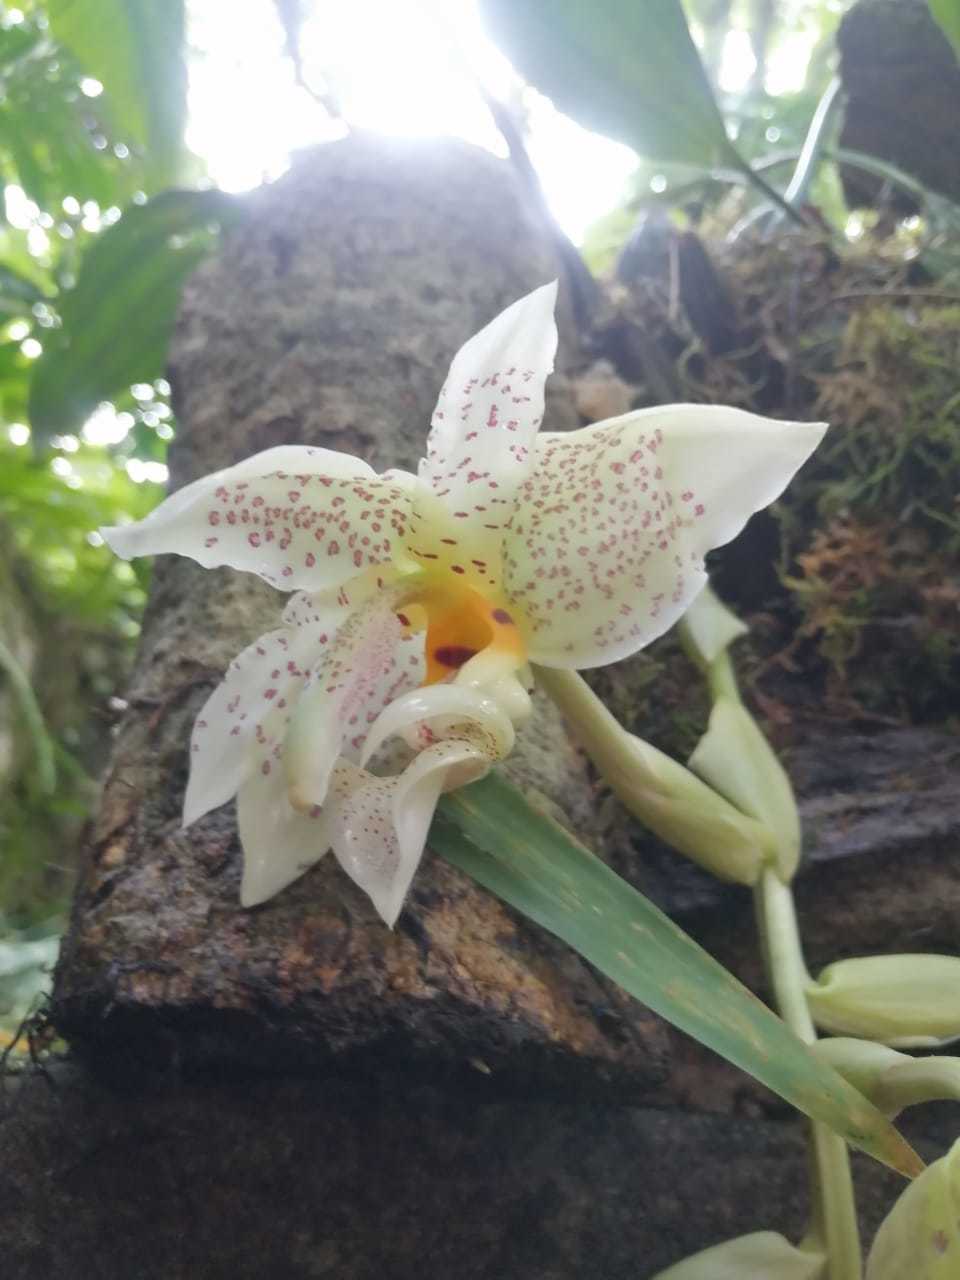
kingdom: Plantae
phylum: Tracheophyta
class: Liliopsida
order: Asparagales
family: Orchidaceae
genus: Stanhopea
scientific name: Stanhopea ruckeri
